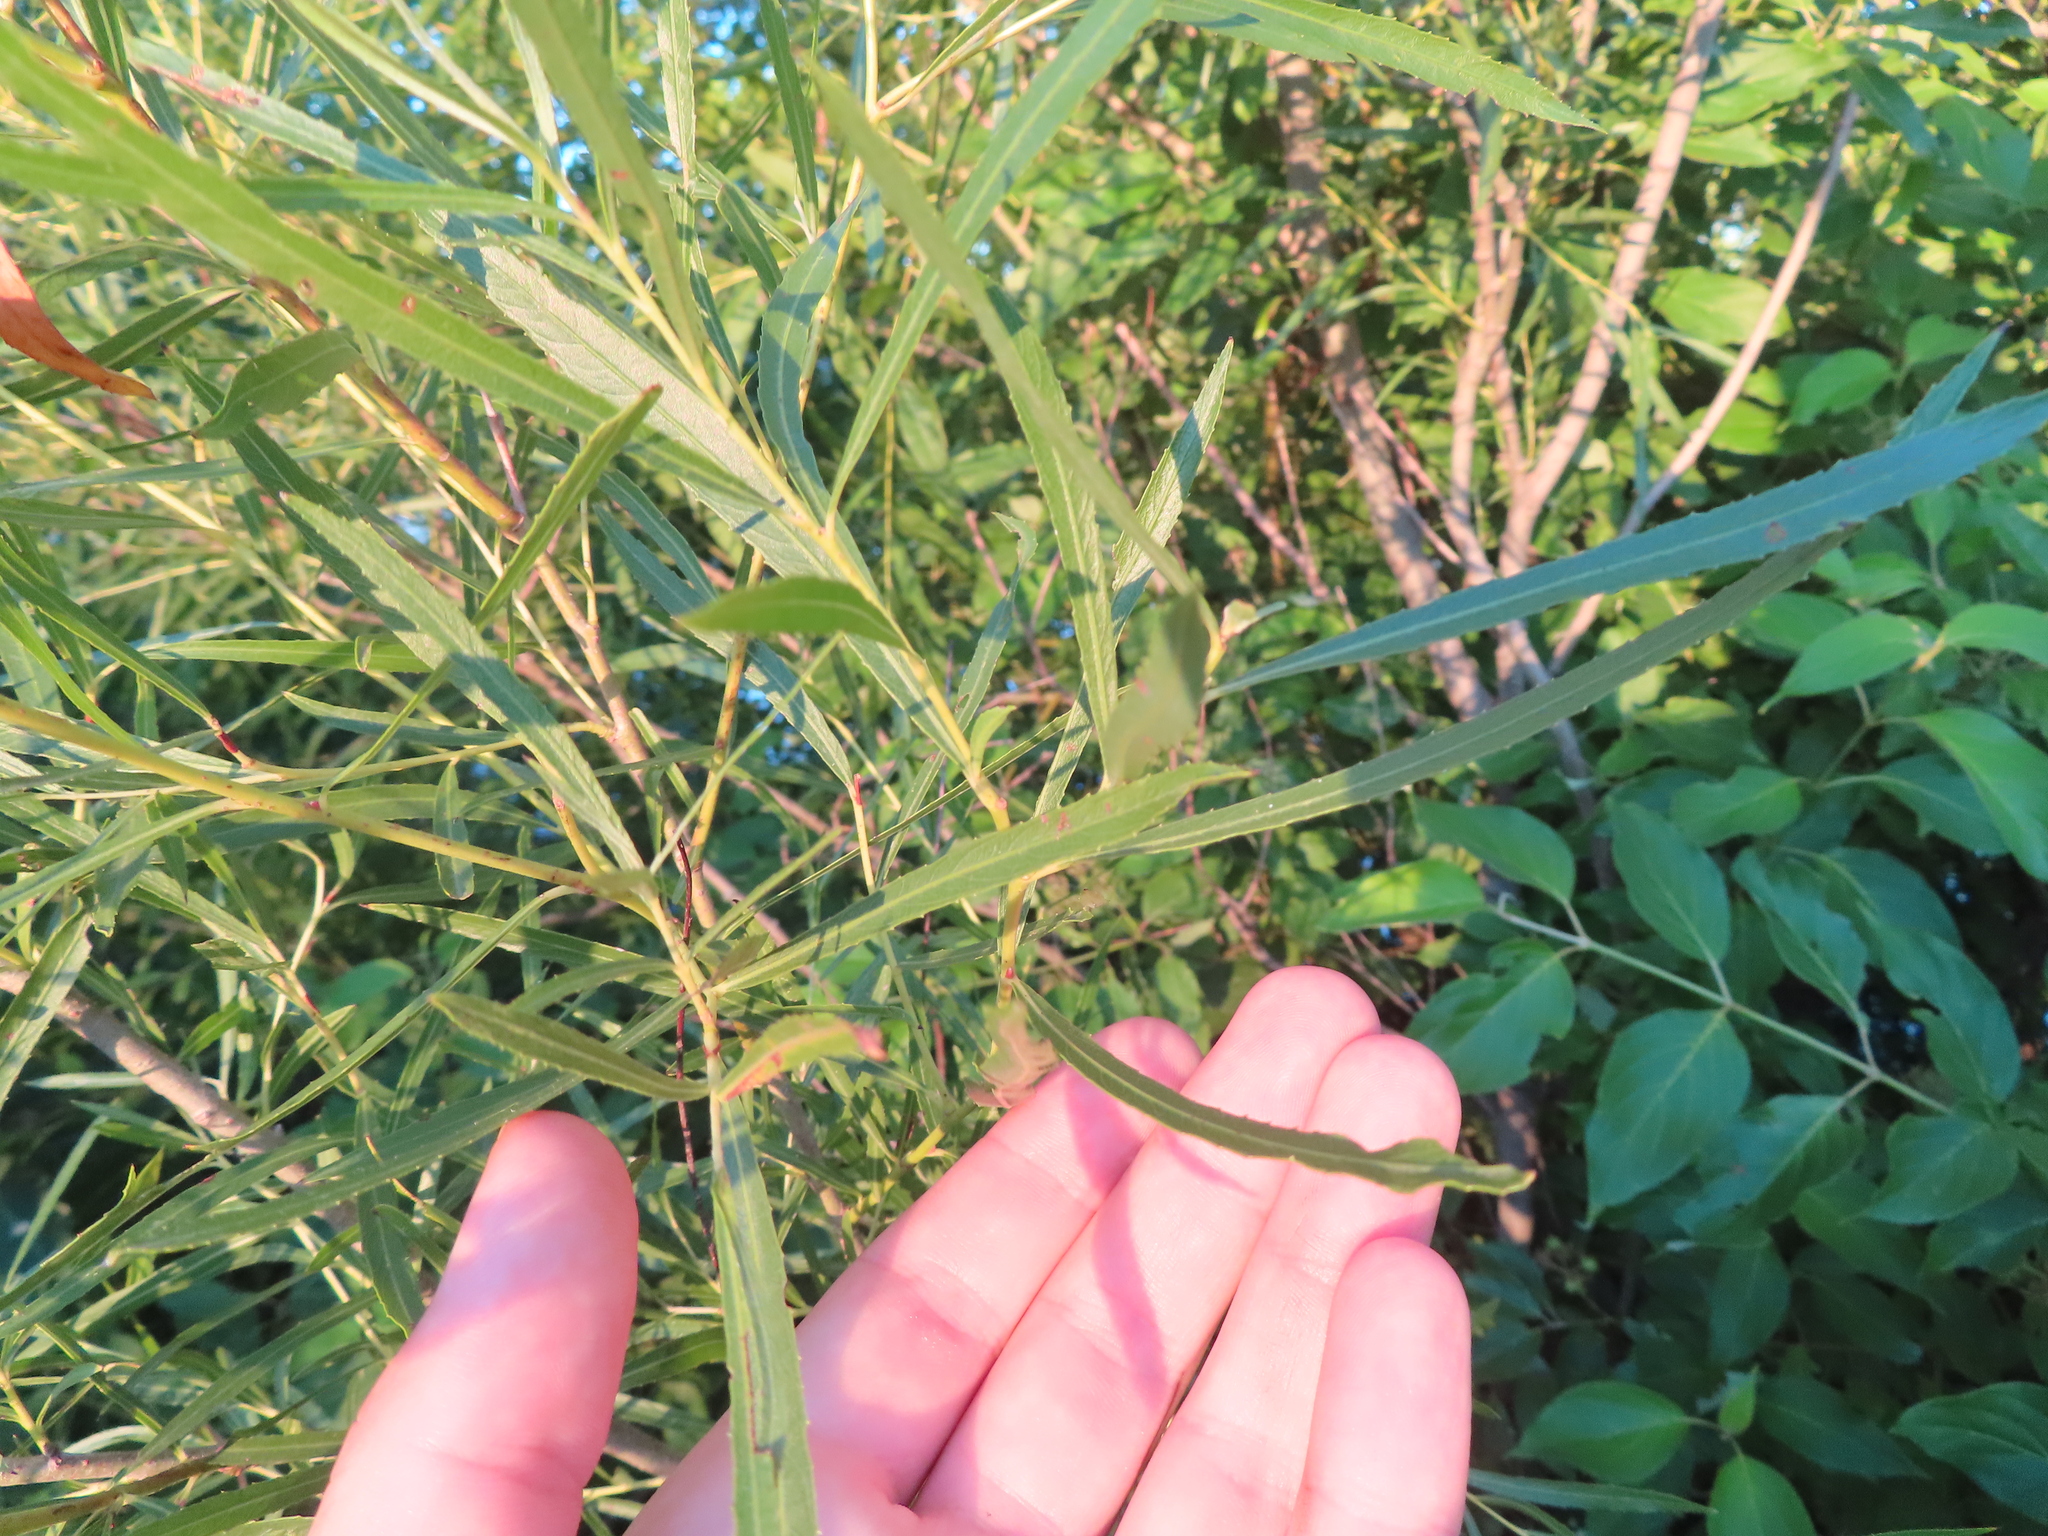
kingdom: Plantae
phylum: Tracheophyta
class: Magnoliopsida
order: Malpighiales
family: Salicaceae
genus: Salix
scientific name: Salix interior
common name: Sandbar willow
